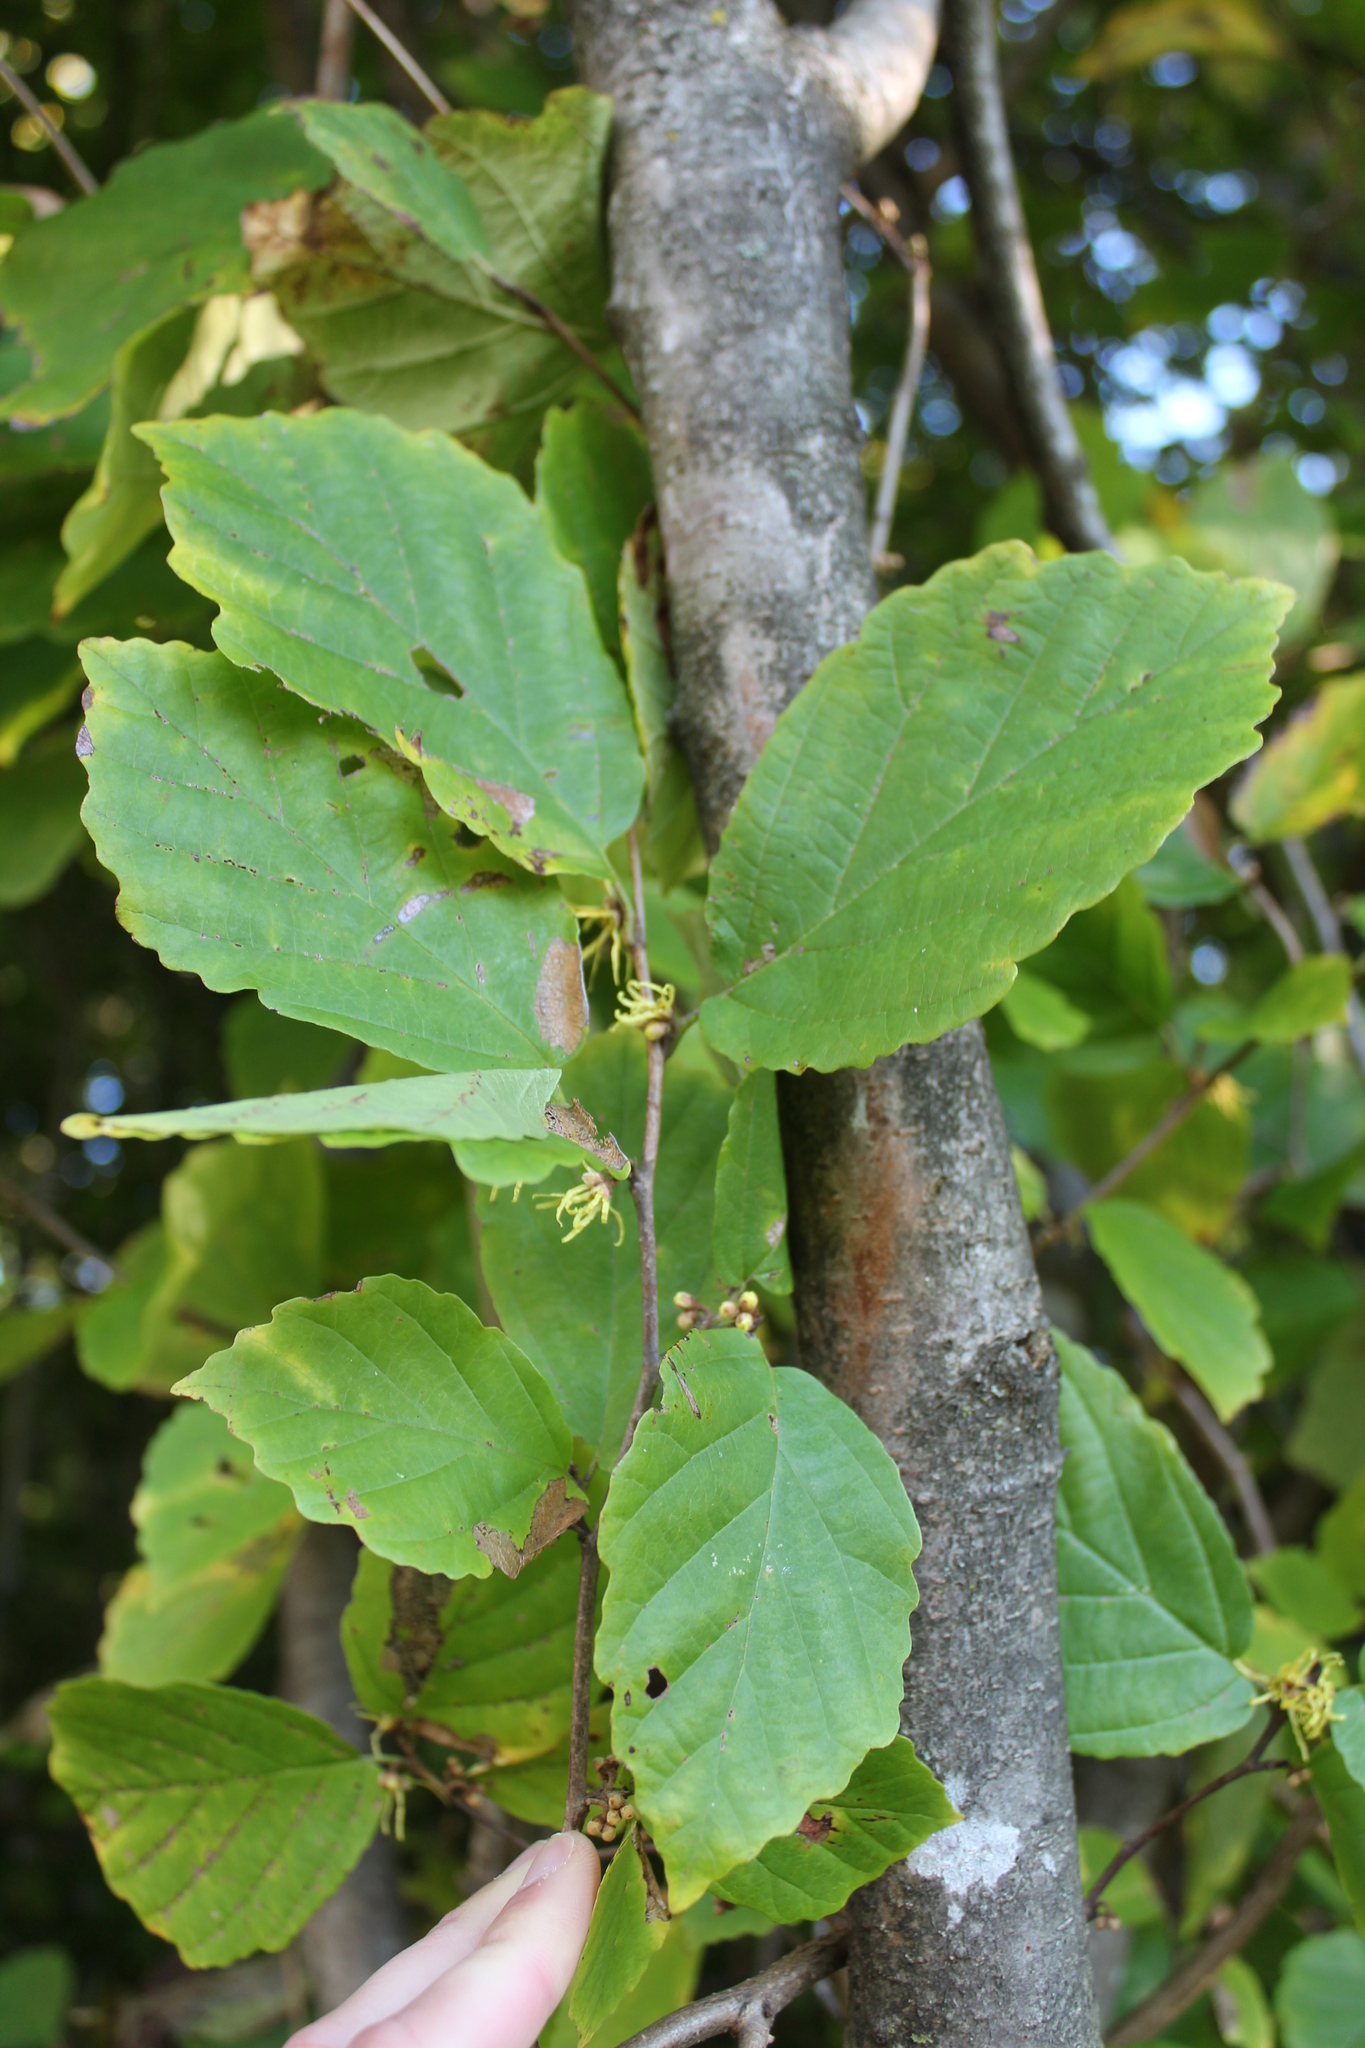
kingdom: Plantae
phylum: Tracheophyta
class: Magnoliopsida
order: Saxifragales
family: Hamamelidaceae
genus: Hamamelis
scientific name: Hamamelis virginiana
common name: Witch-hazel
